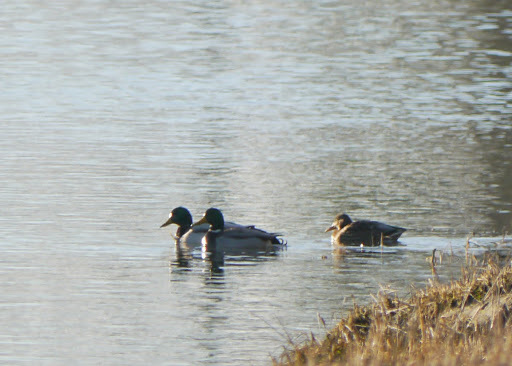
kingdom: Animalia
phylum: Chordata
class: Aves
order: Anseriformes
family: Anatidae
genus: Anas
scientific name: Anas platyrhynchos
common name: Mallard
